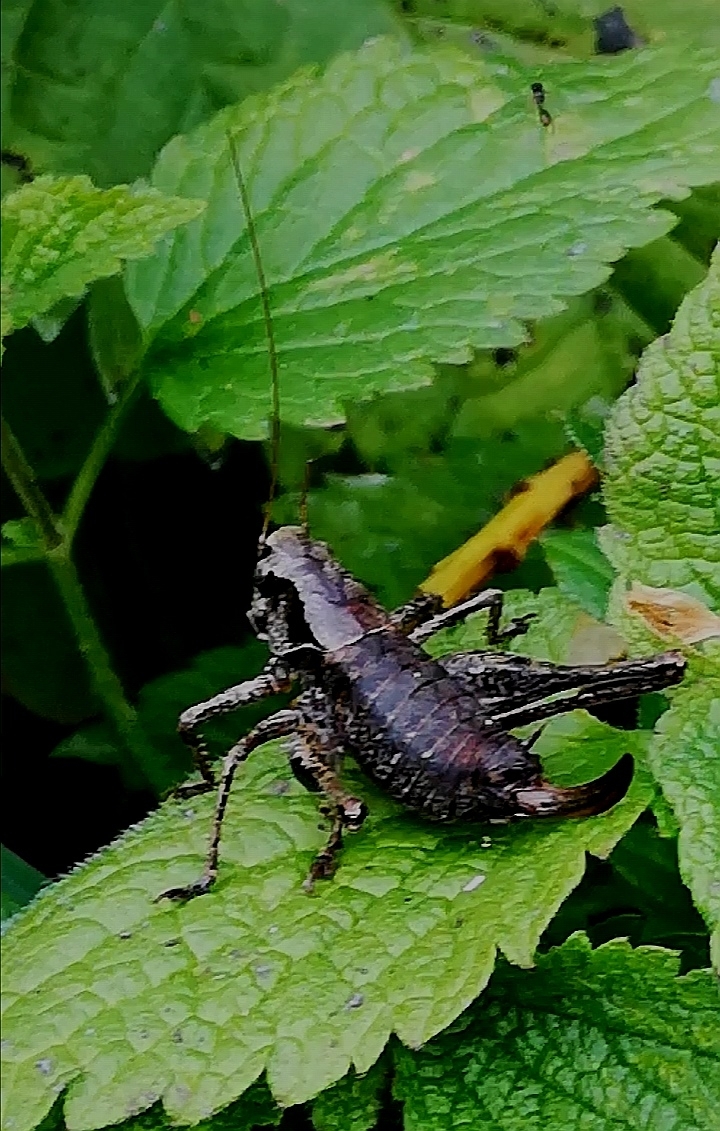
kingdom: Animalia
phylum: Arthropoda
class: Insecta
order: Orthoptera
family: Tettigoniidae
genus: Pholidoptera
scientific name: Pholidoptera griseoaptera
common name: Dark bush-cricket
